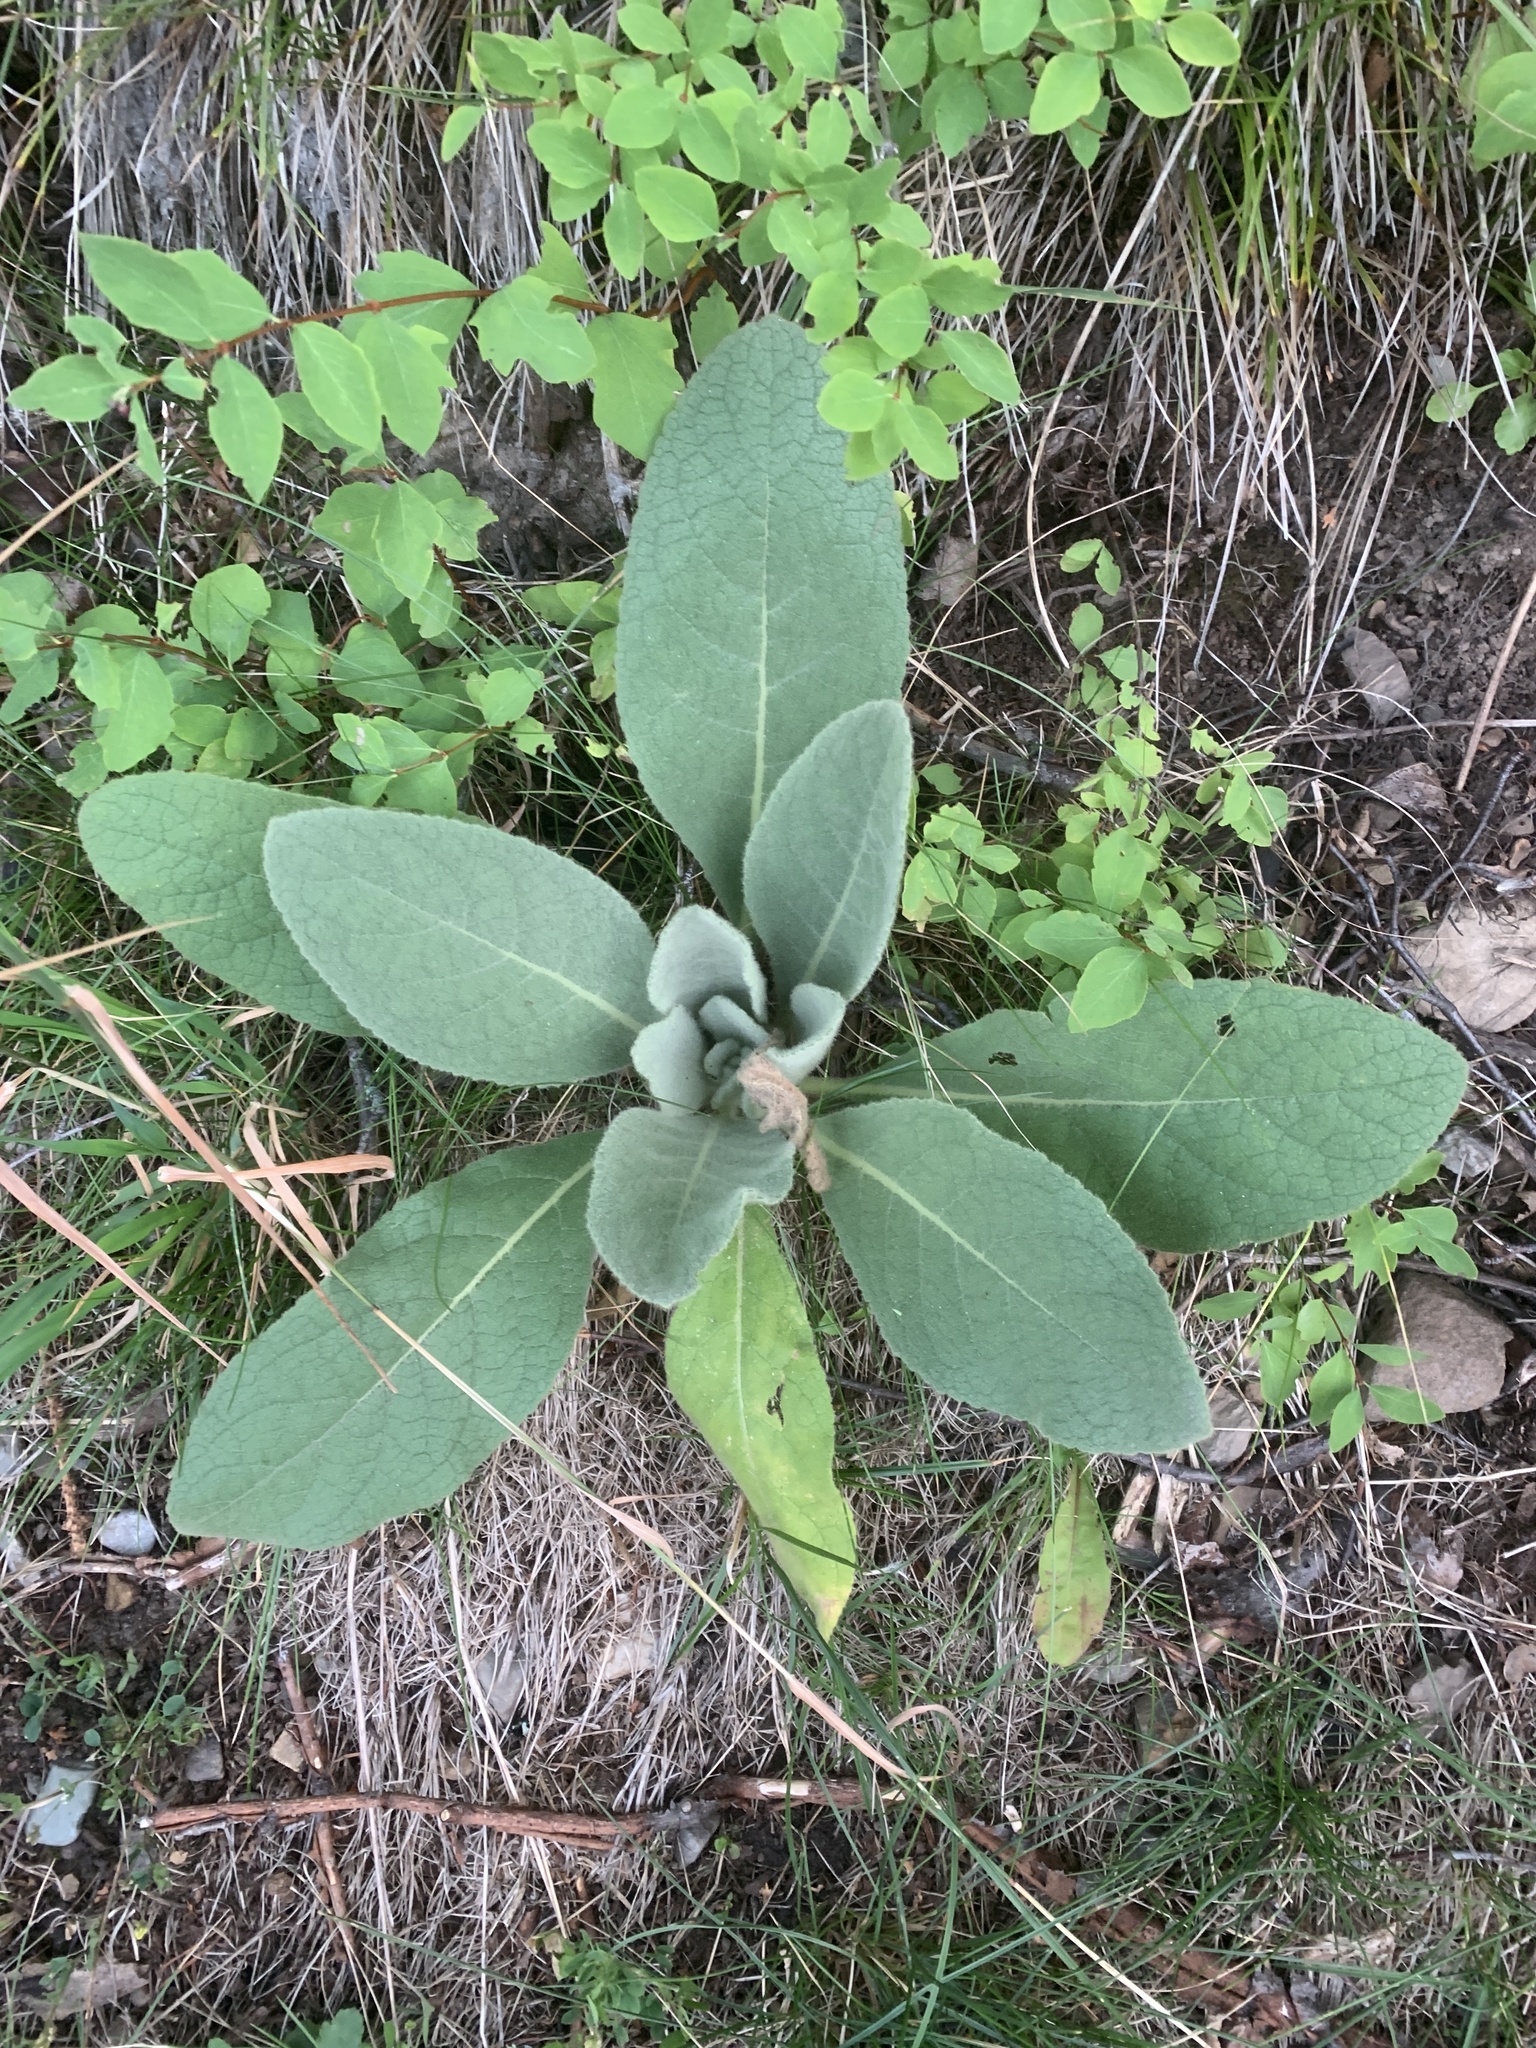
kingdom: Plantae
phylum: Tracheophyta
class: Magnoliopsida
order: Lamiales
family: Scrophulariaceae
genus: Verbascum
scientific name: Verbascum thapsus
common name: Common mullein
